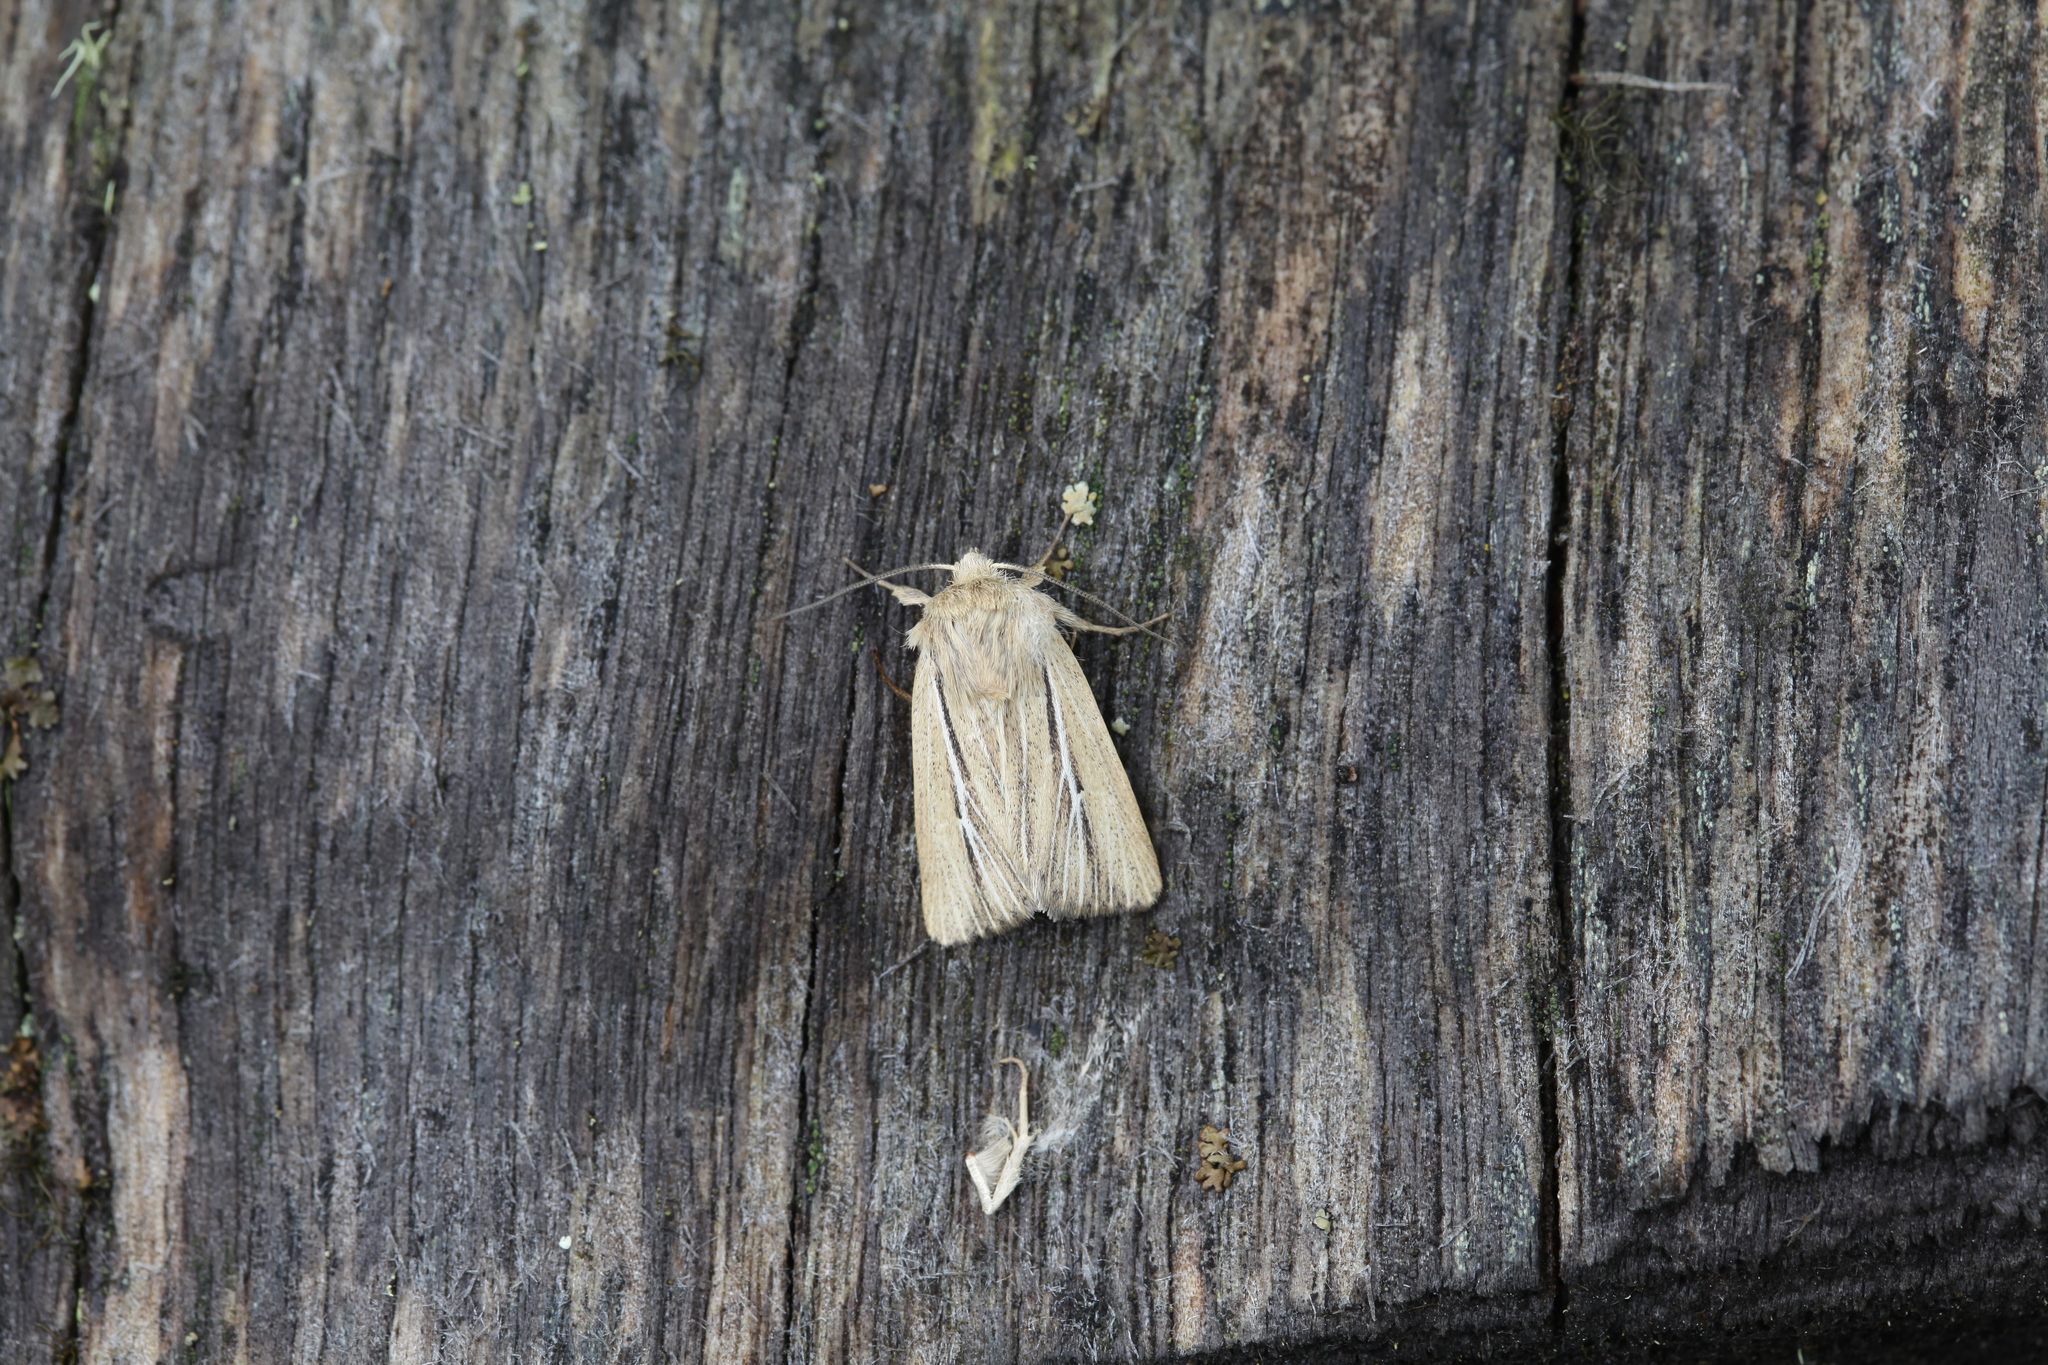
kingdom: Animalia
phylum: Arthropoda
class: Insecta
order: Lepidoptera
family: Noctuidae
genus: Mythimna
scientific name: Mythimna anderreggii
